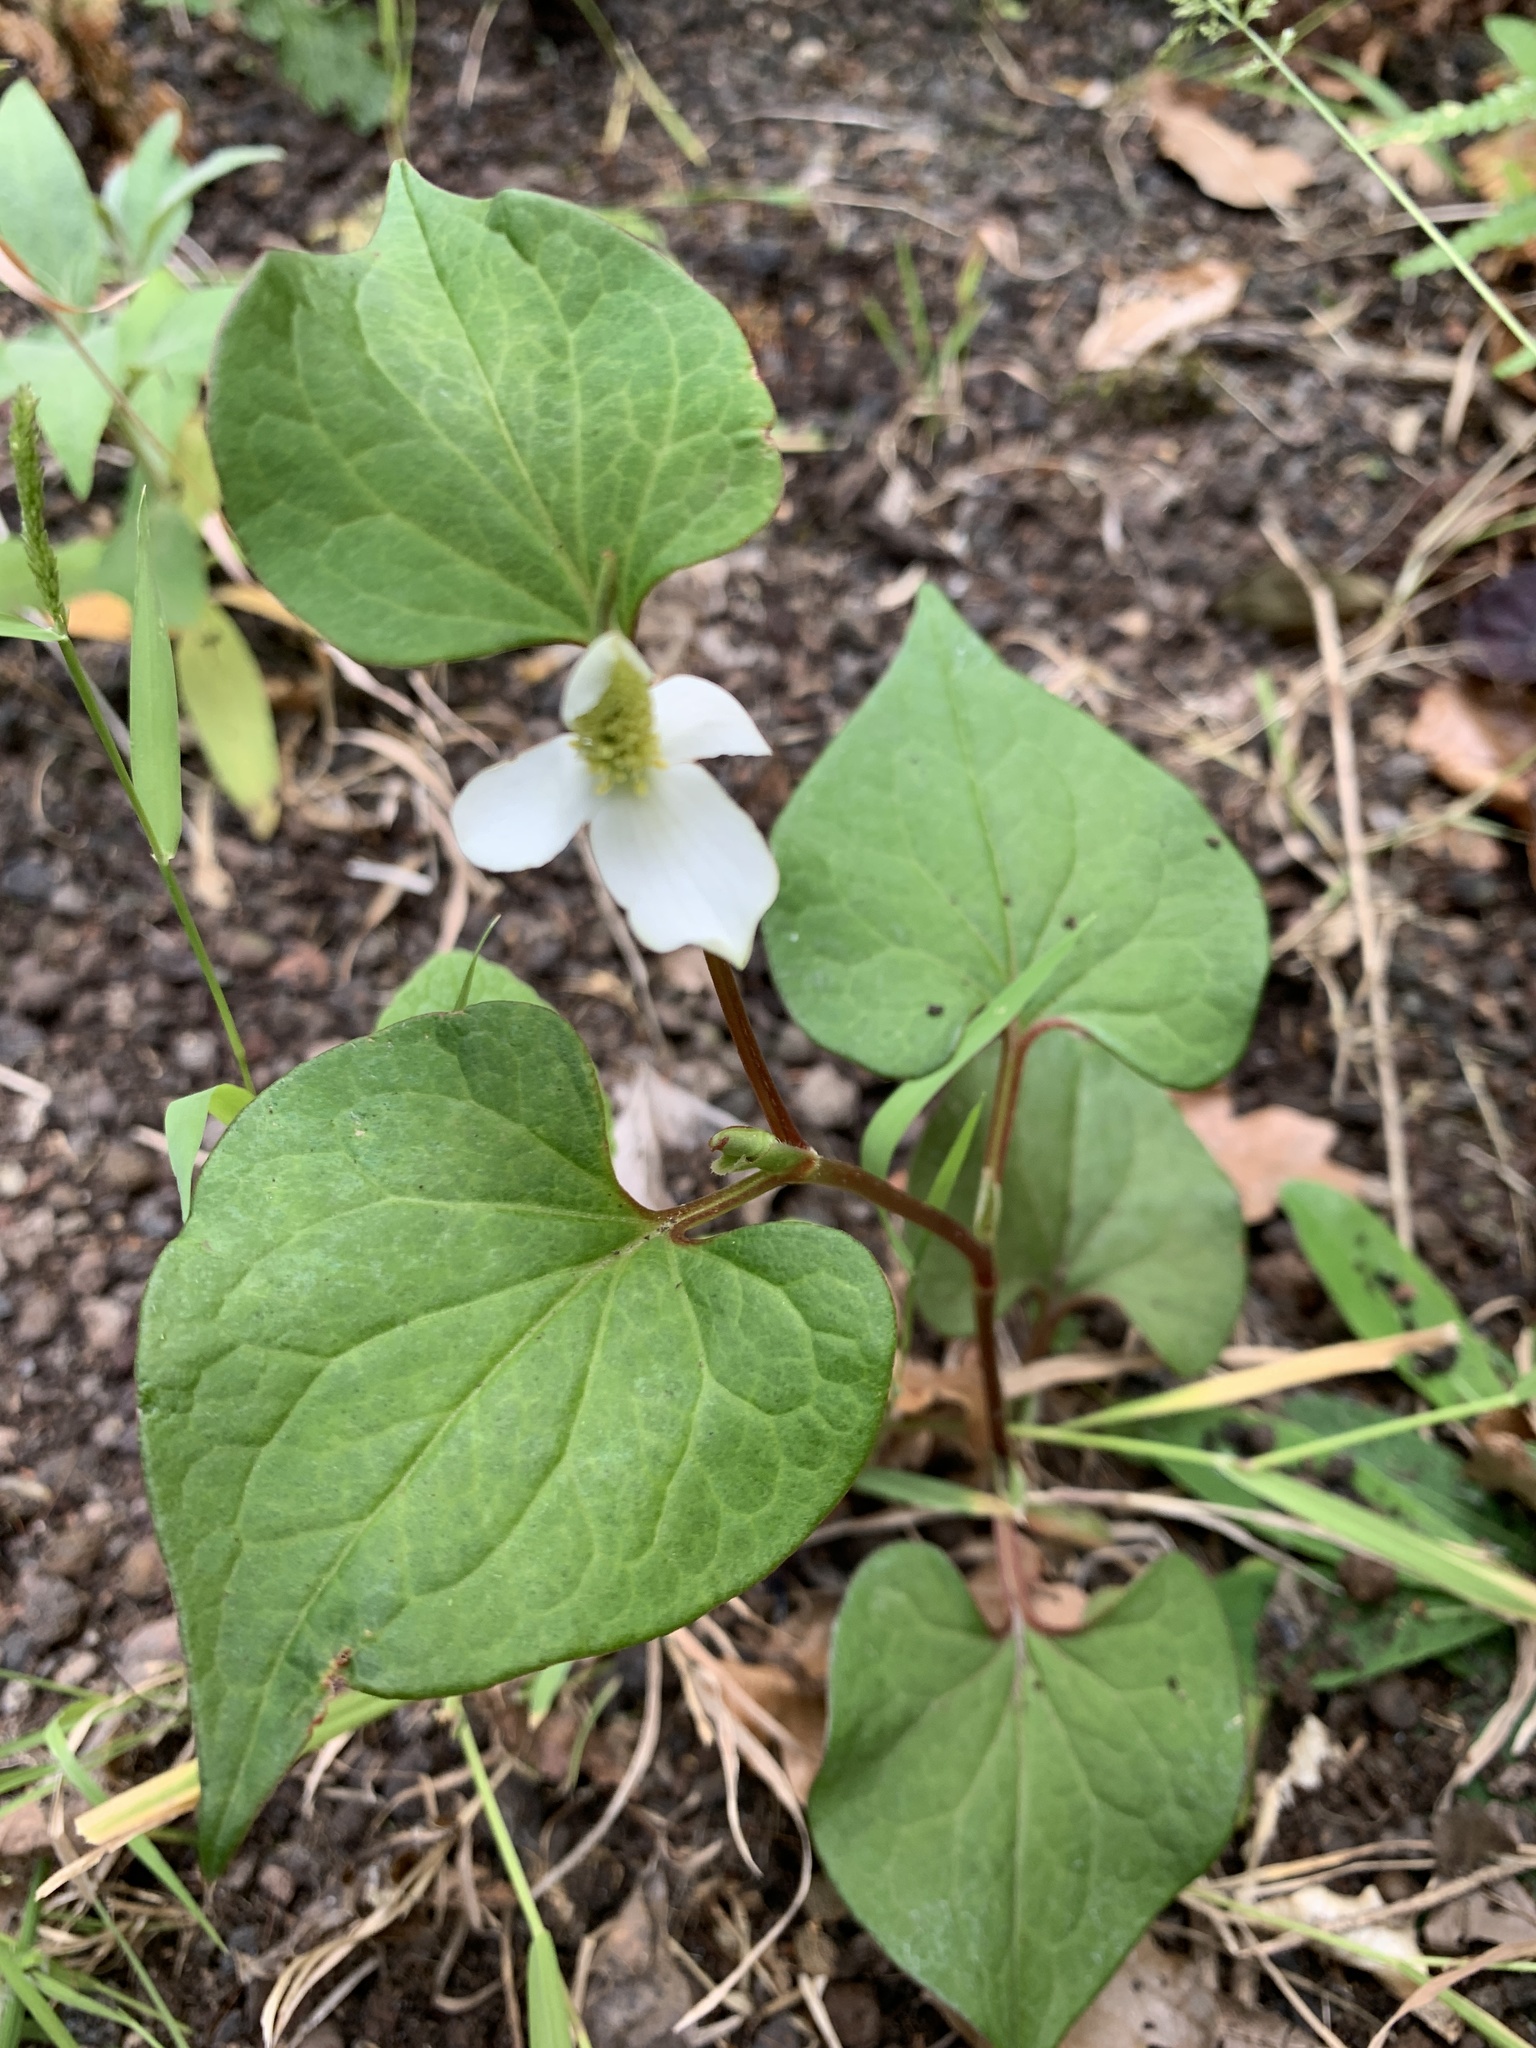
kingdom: Plantae
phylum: Tracheophyta
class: Magnoliopsida
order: Piperales
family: Saururaceae
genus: Houttuynia
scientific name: Houttuynia cordata
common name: Chameleon
